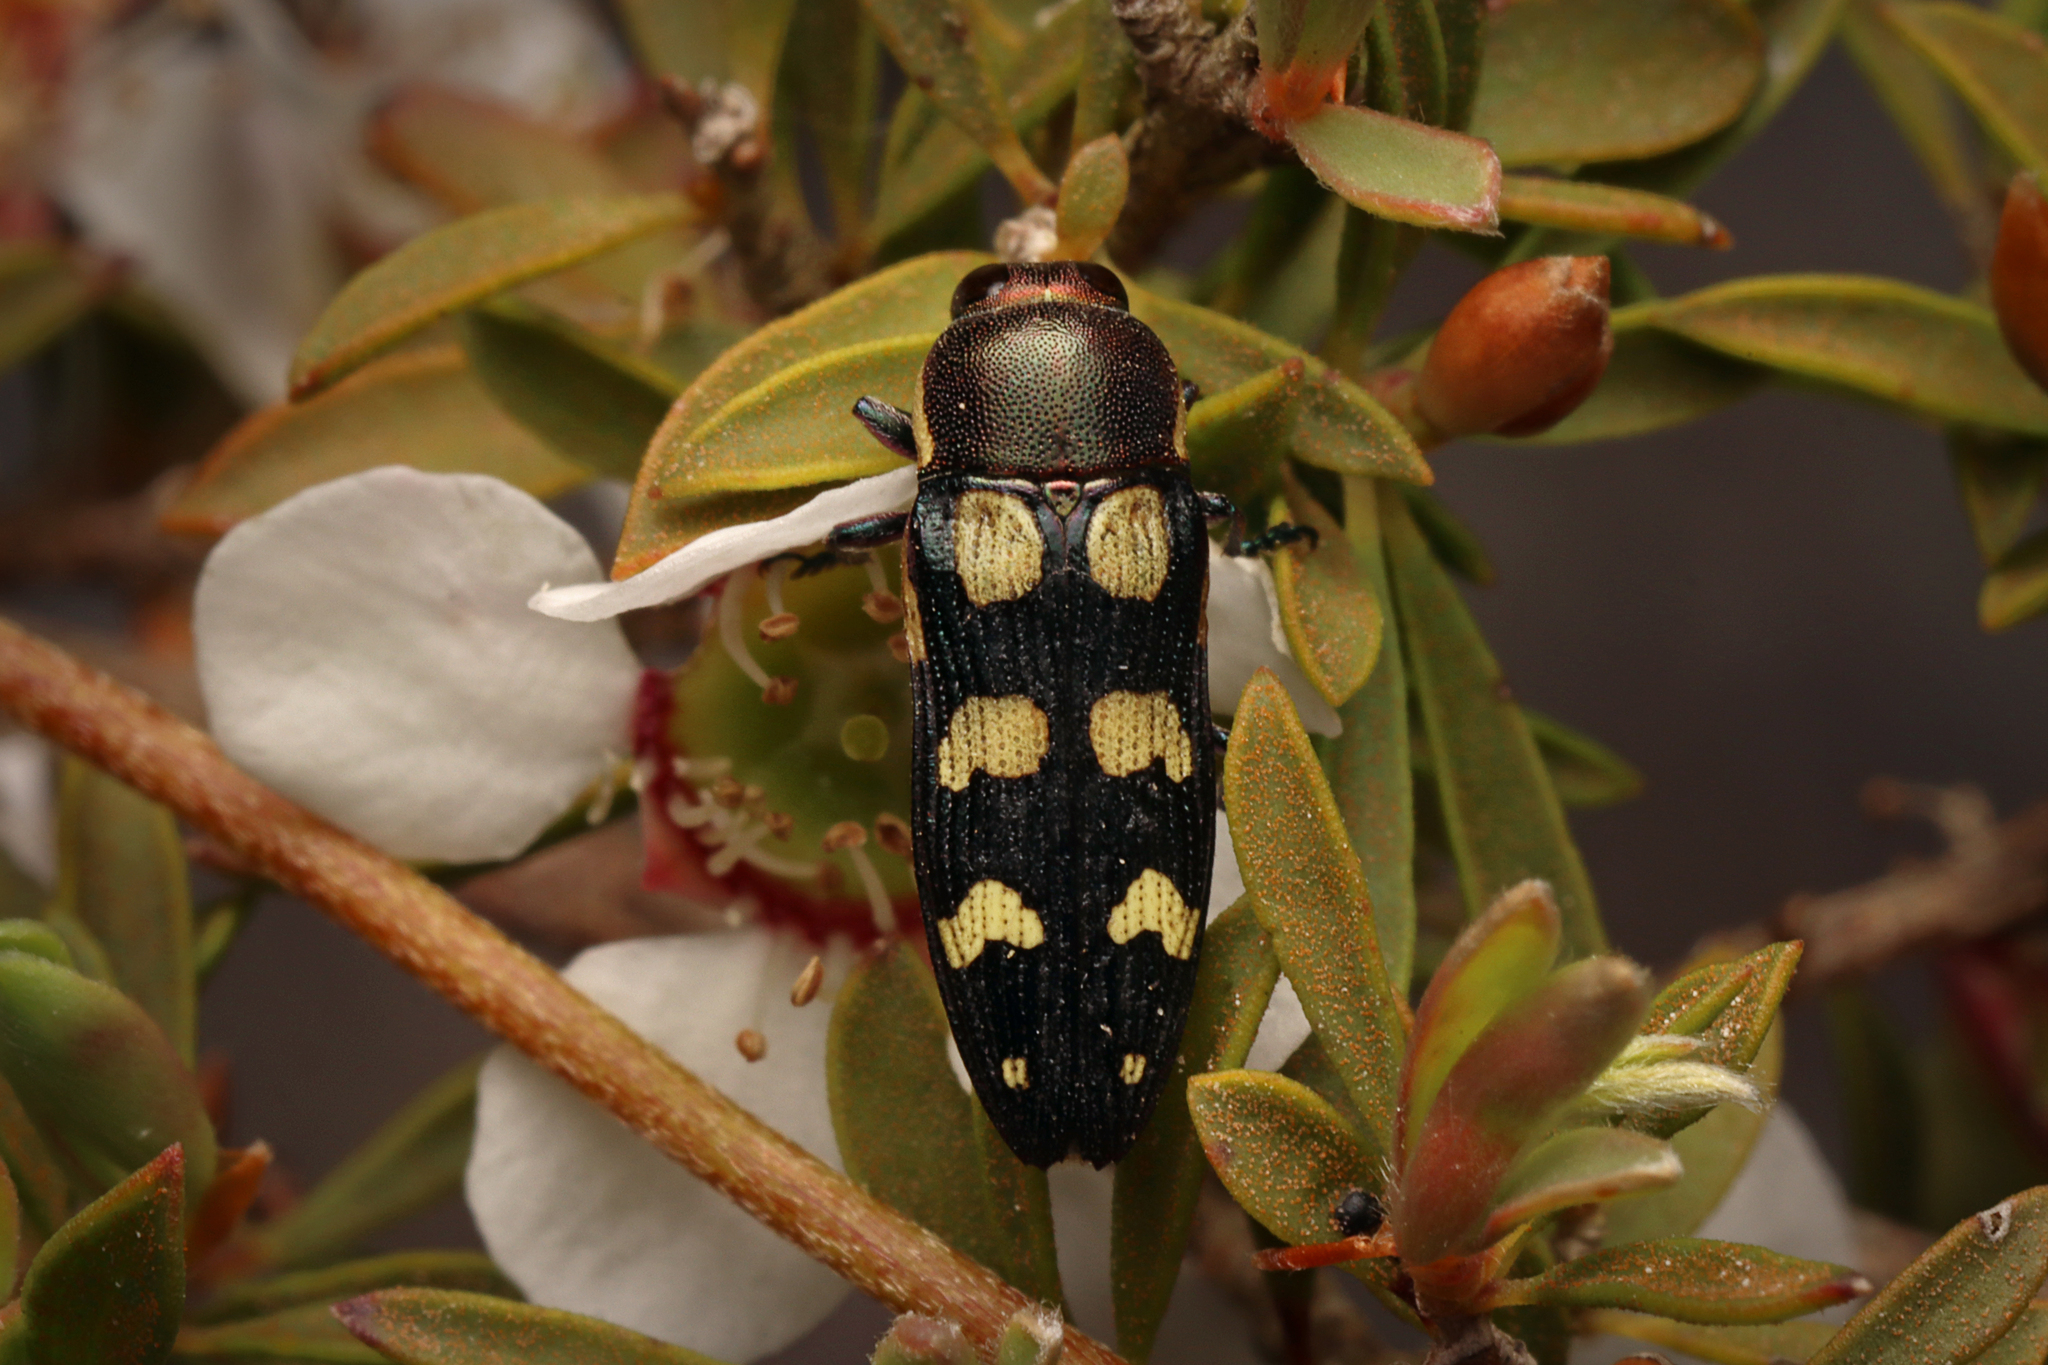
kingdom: Animalia
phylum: Arthropoda
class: Insecta
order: Coleoptera
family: Buprestidae
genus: Castiarina
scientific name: Castiarina decemmaculata
